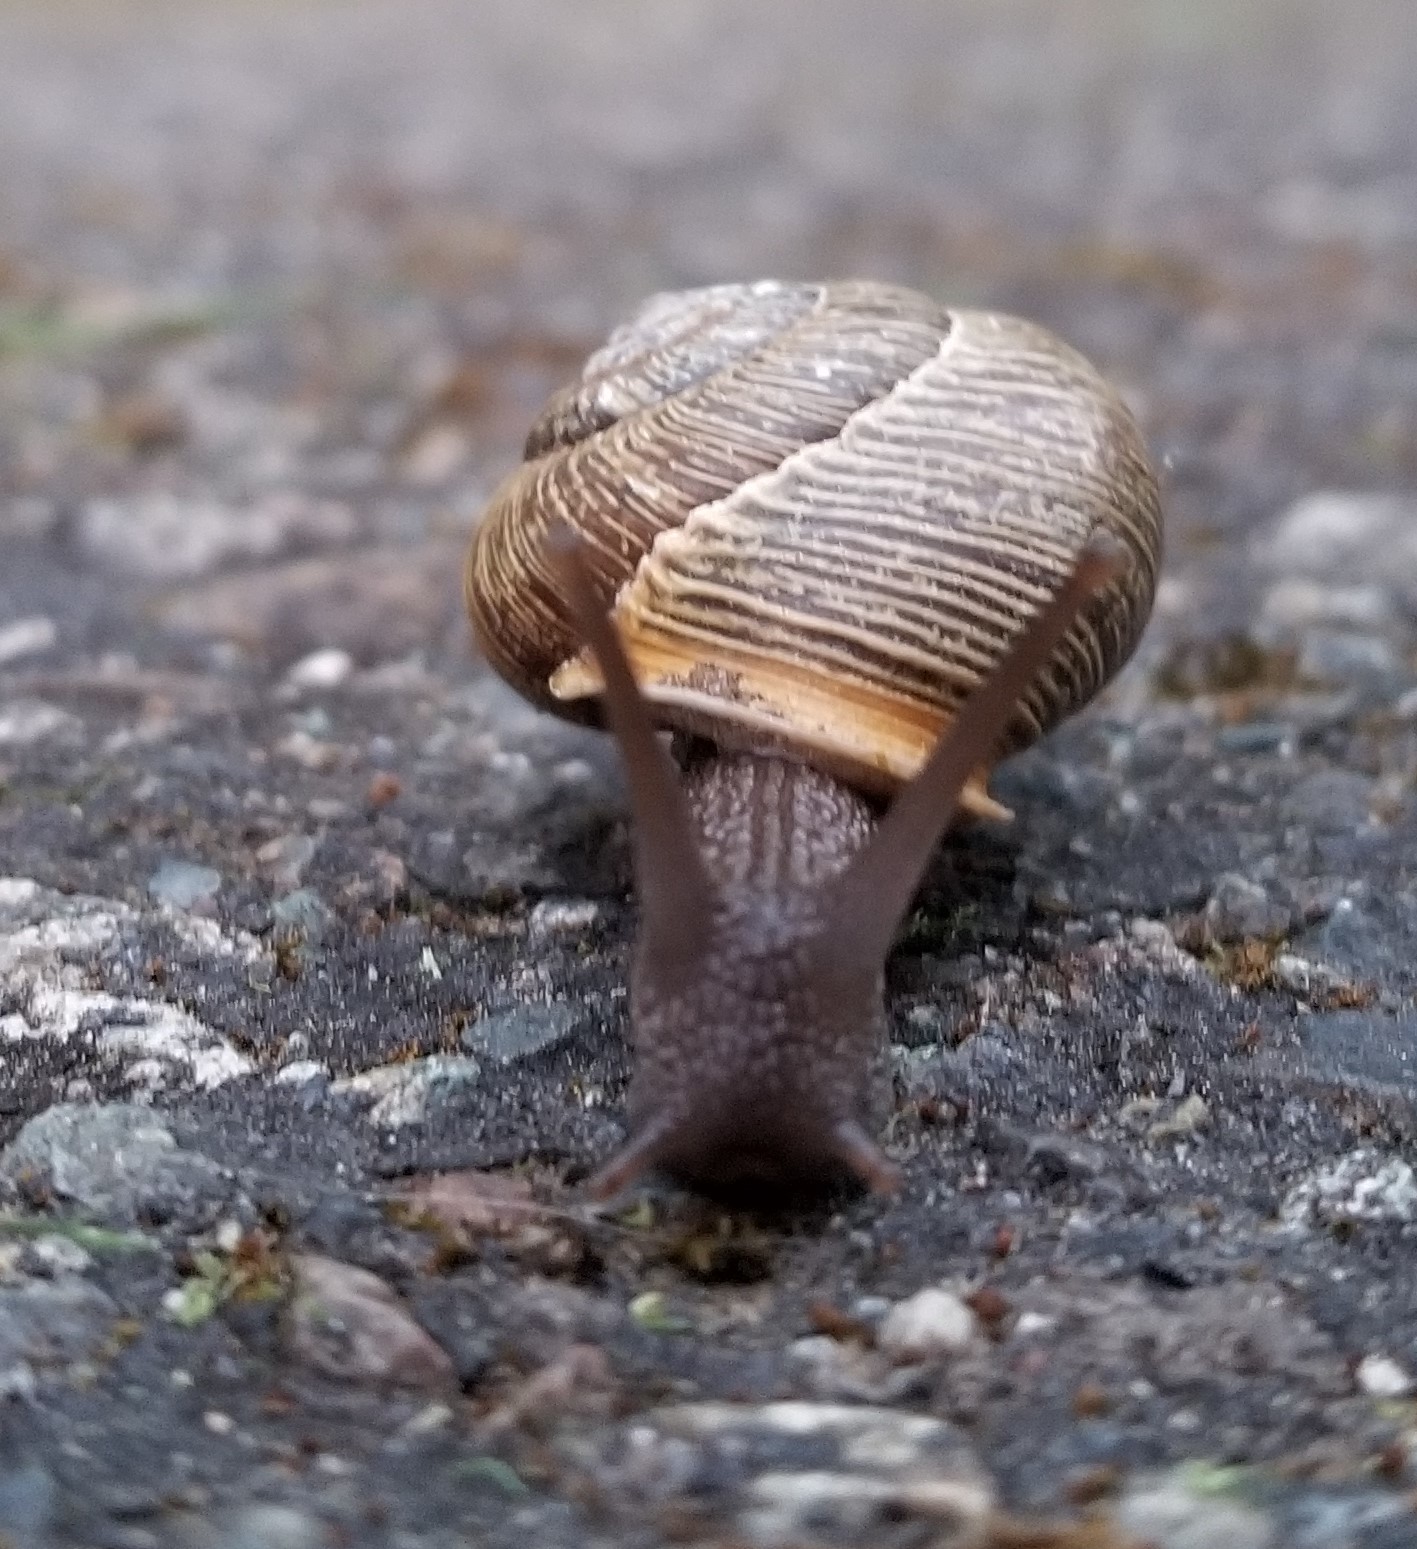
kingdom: Animalia
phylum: Mollusca
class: Gastropoda
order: Stylommatophora
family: Polygyridae
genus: Allogona
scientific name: Allogona townsendiana
